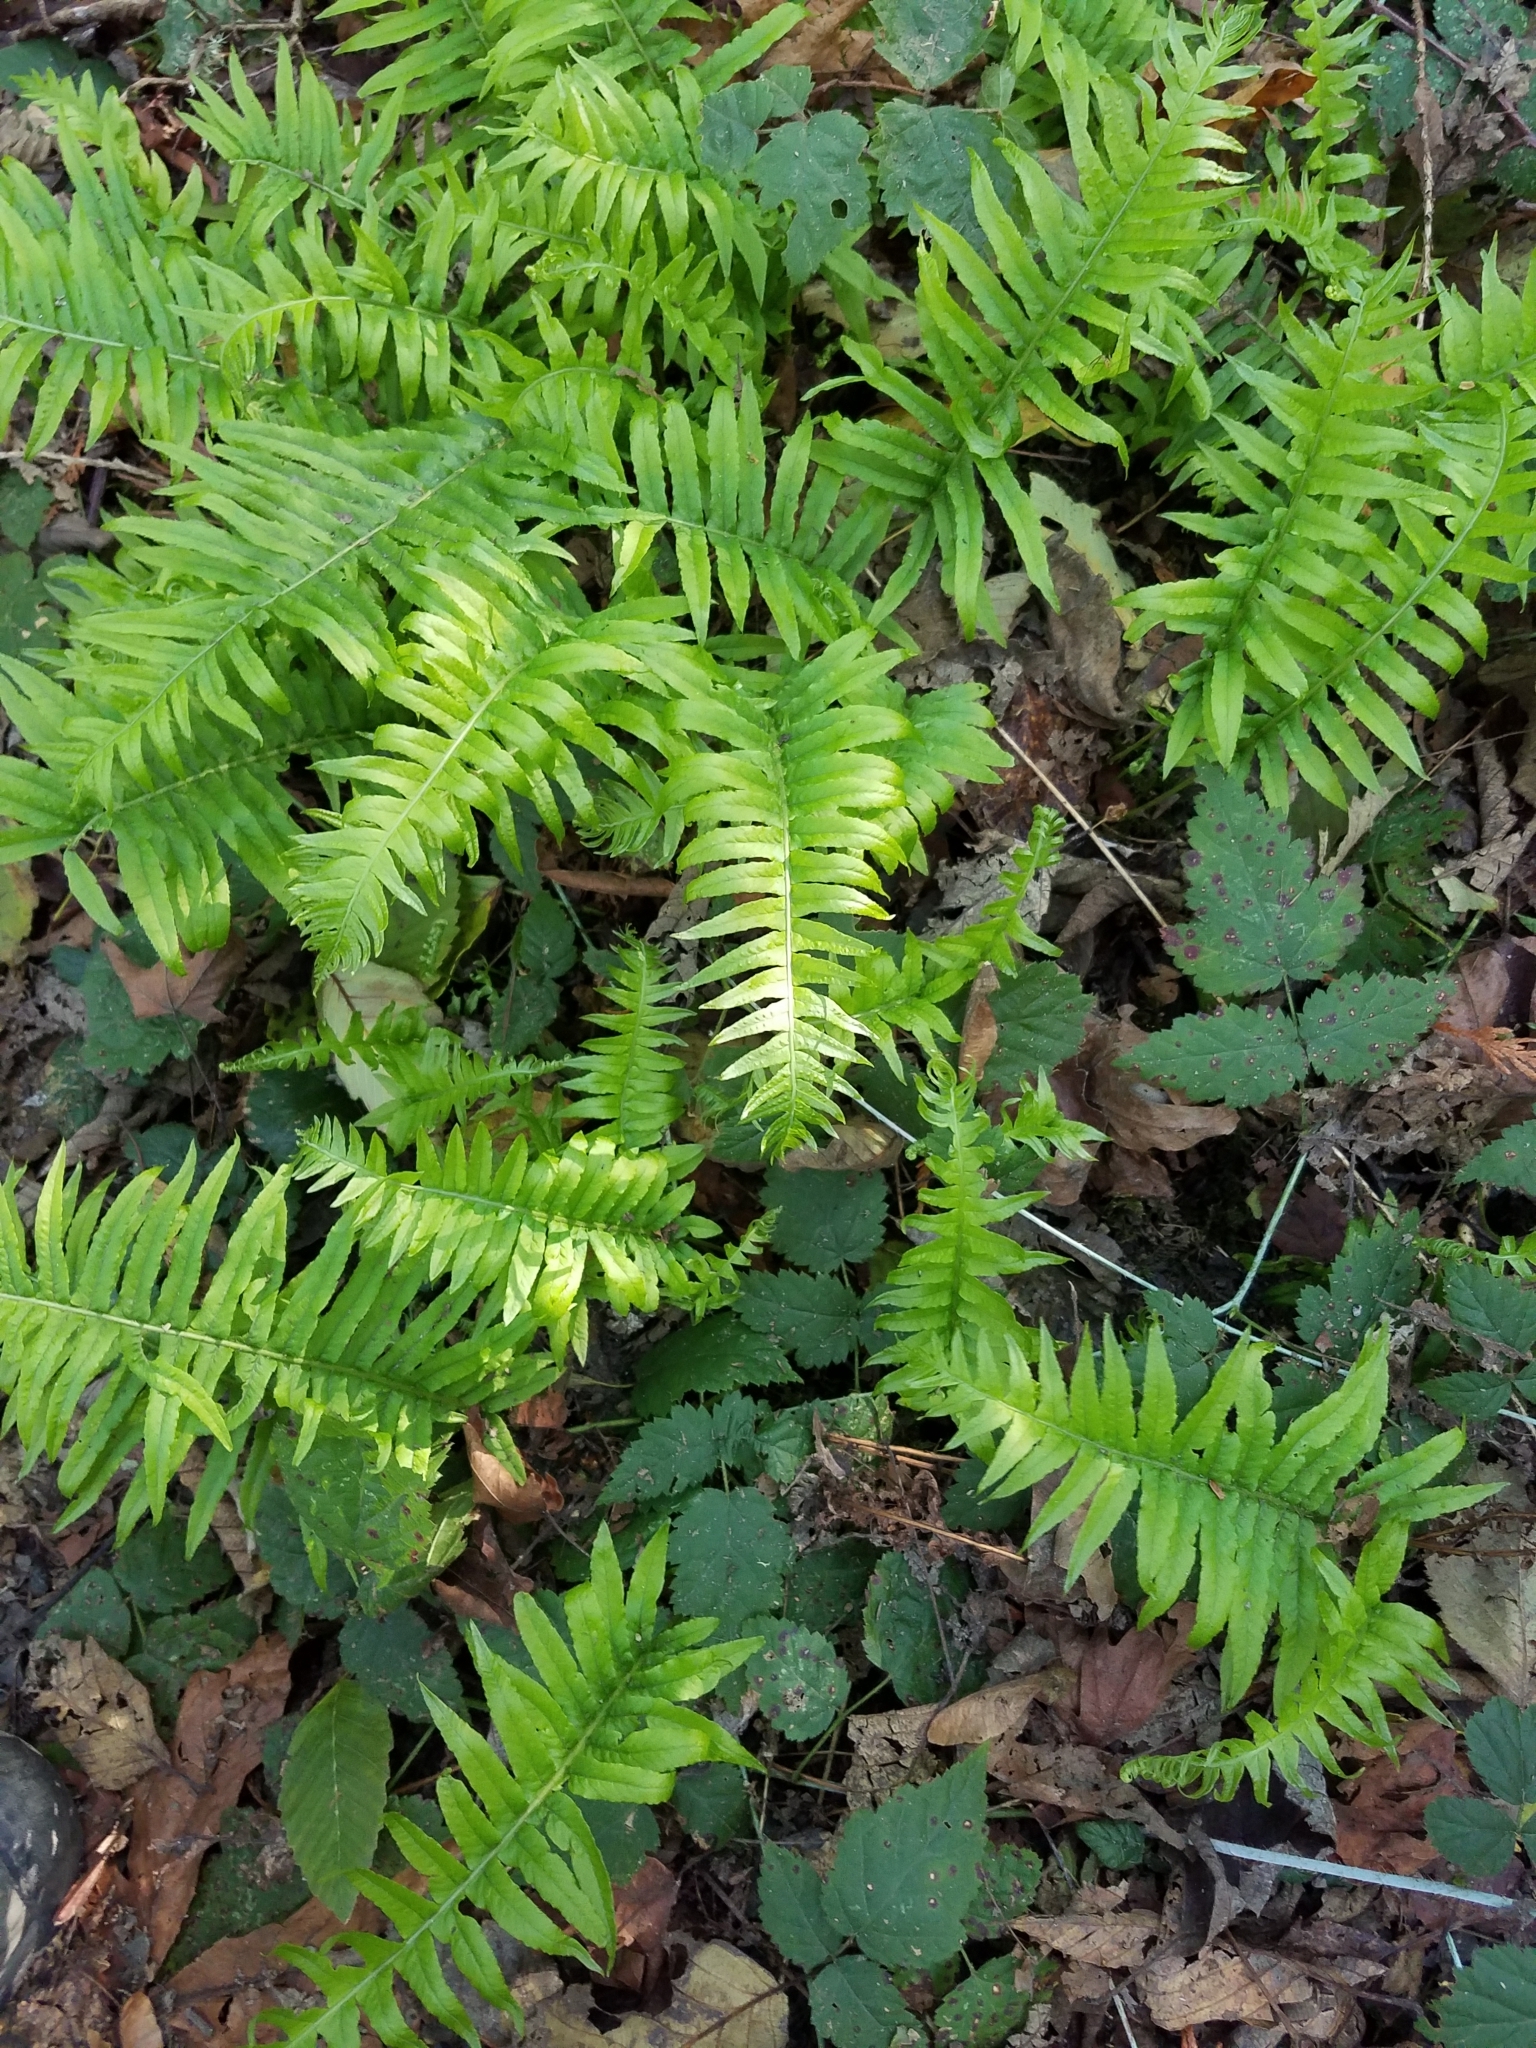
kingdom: Plantae
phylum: Tracheophyta
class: Polypodiopsida
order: Polypodiales
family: Polypodiaceae
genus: Polypodium
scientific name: Polypodium glycyrrhiza
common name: Licorice fern
